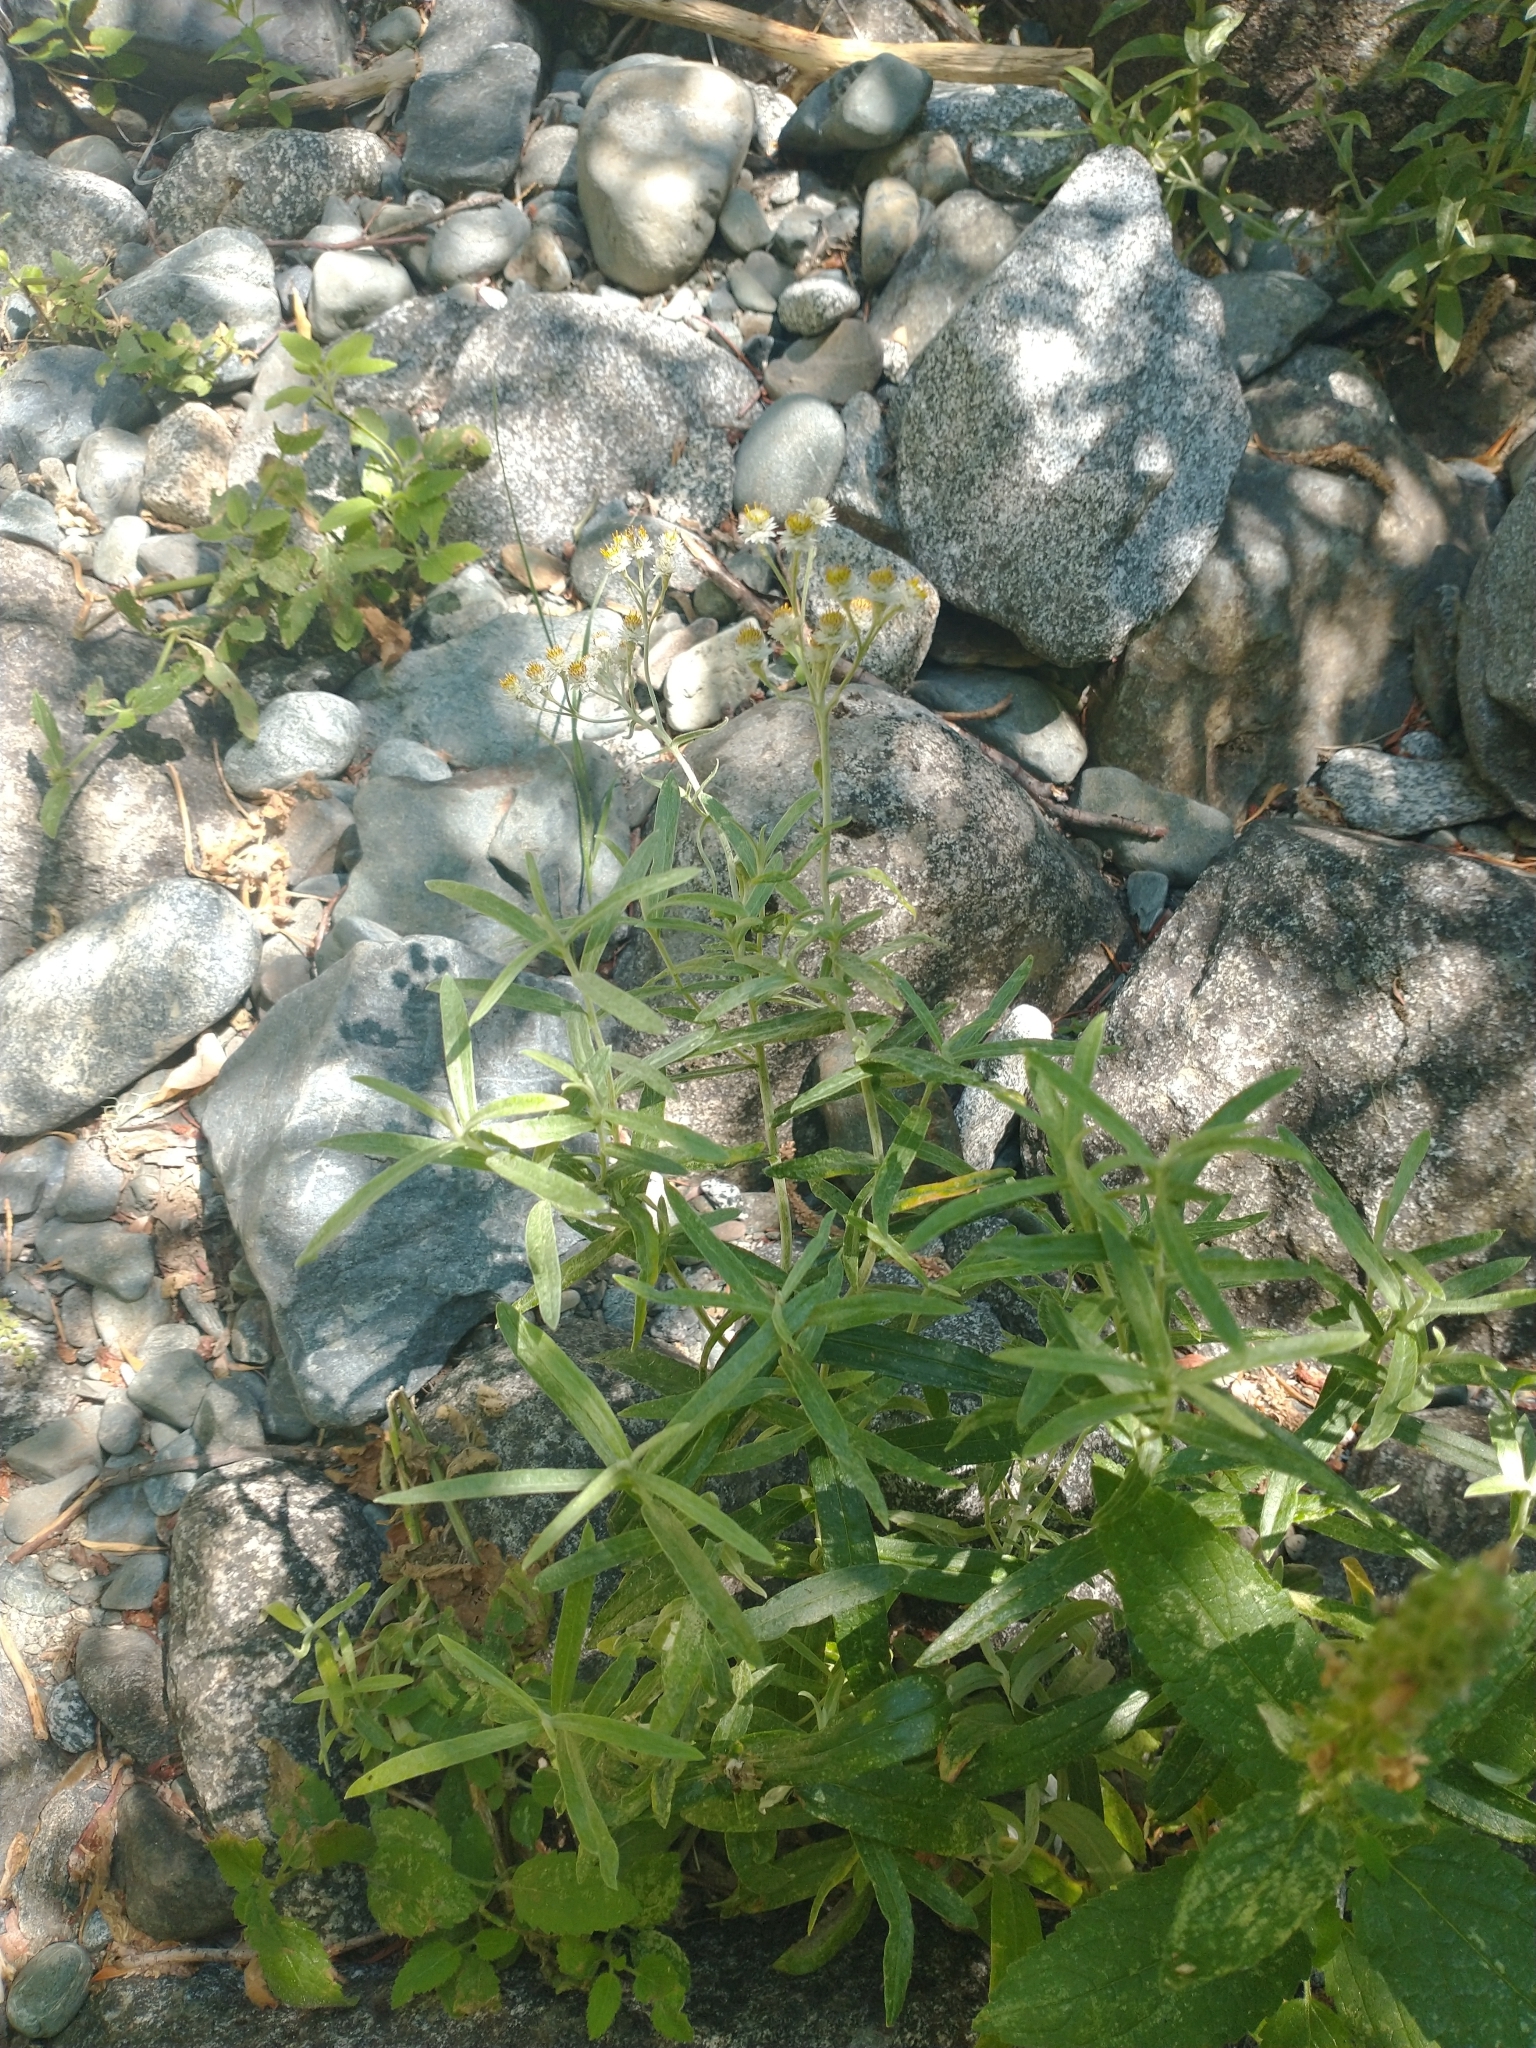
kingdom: Plantae
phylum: Tracheophyta
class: Magnoliopsida
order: Asterales
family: Asteraceae
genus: Anaphalis
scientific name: Anaphalis margaritacea
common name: Pearly everlasting
